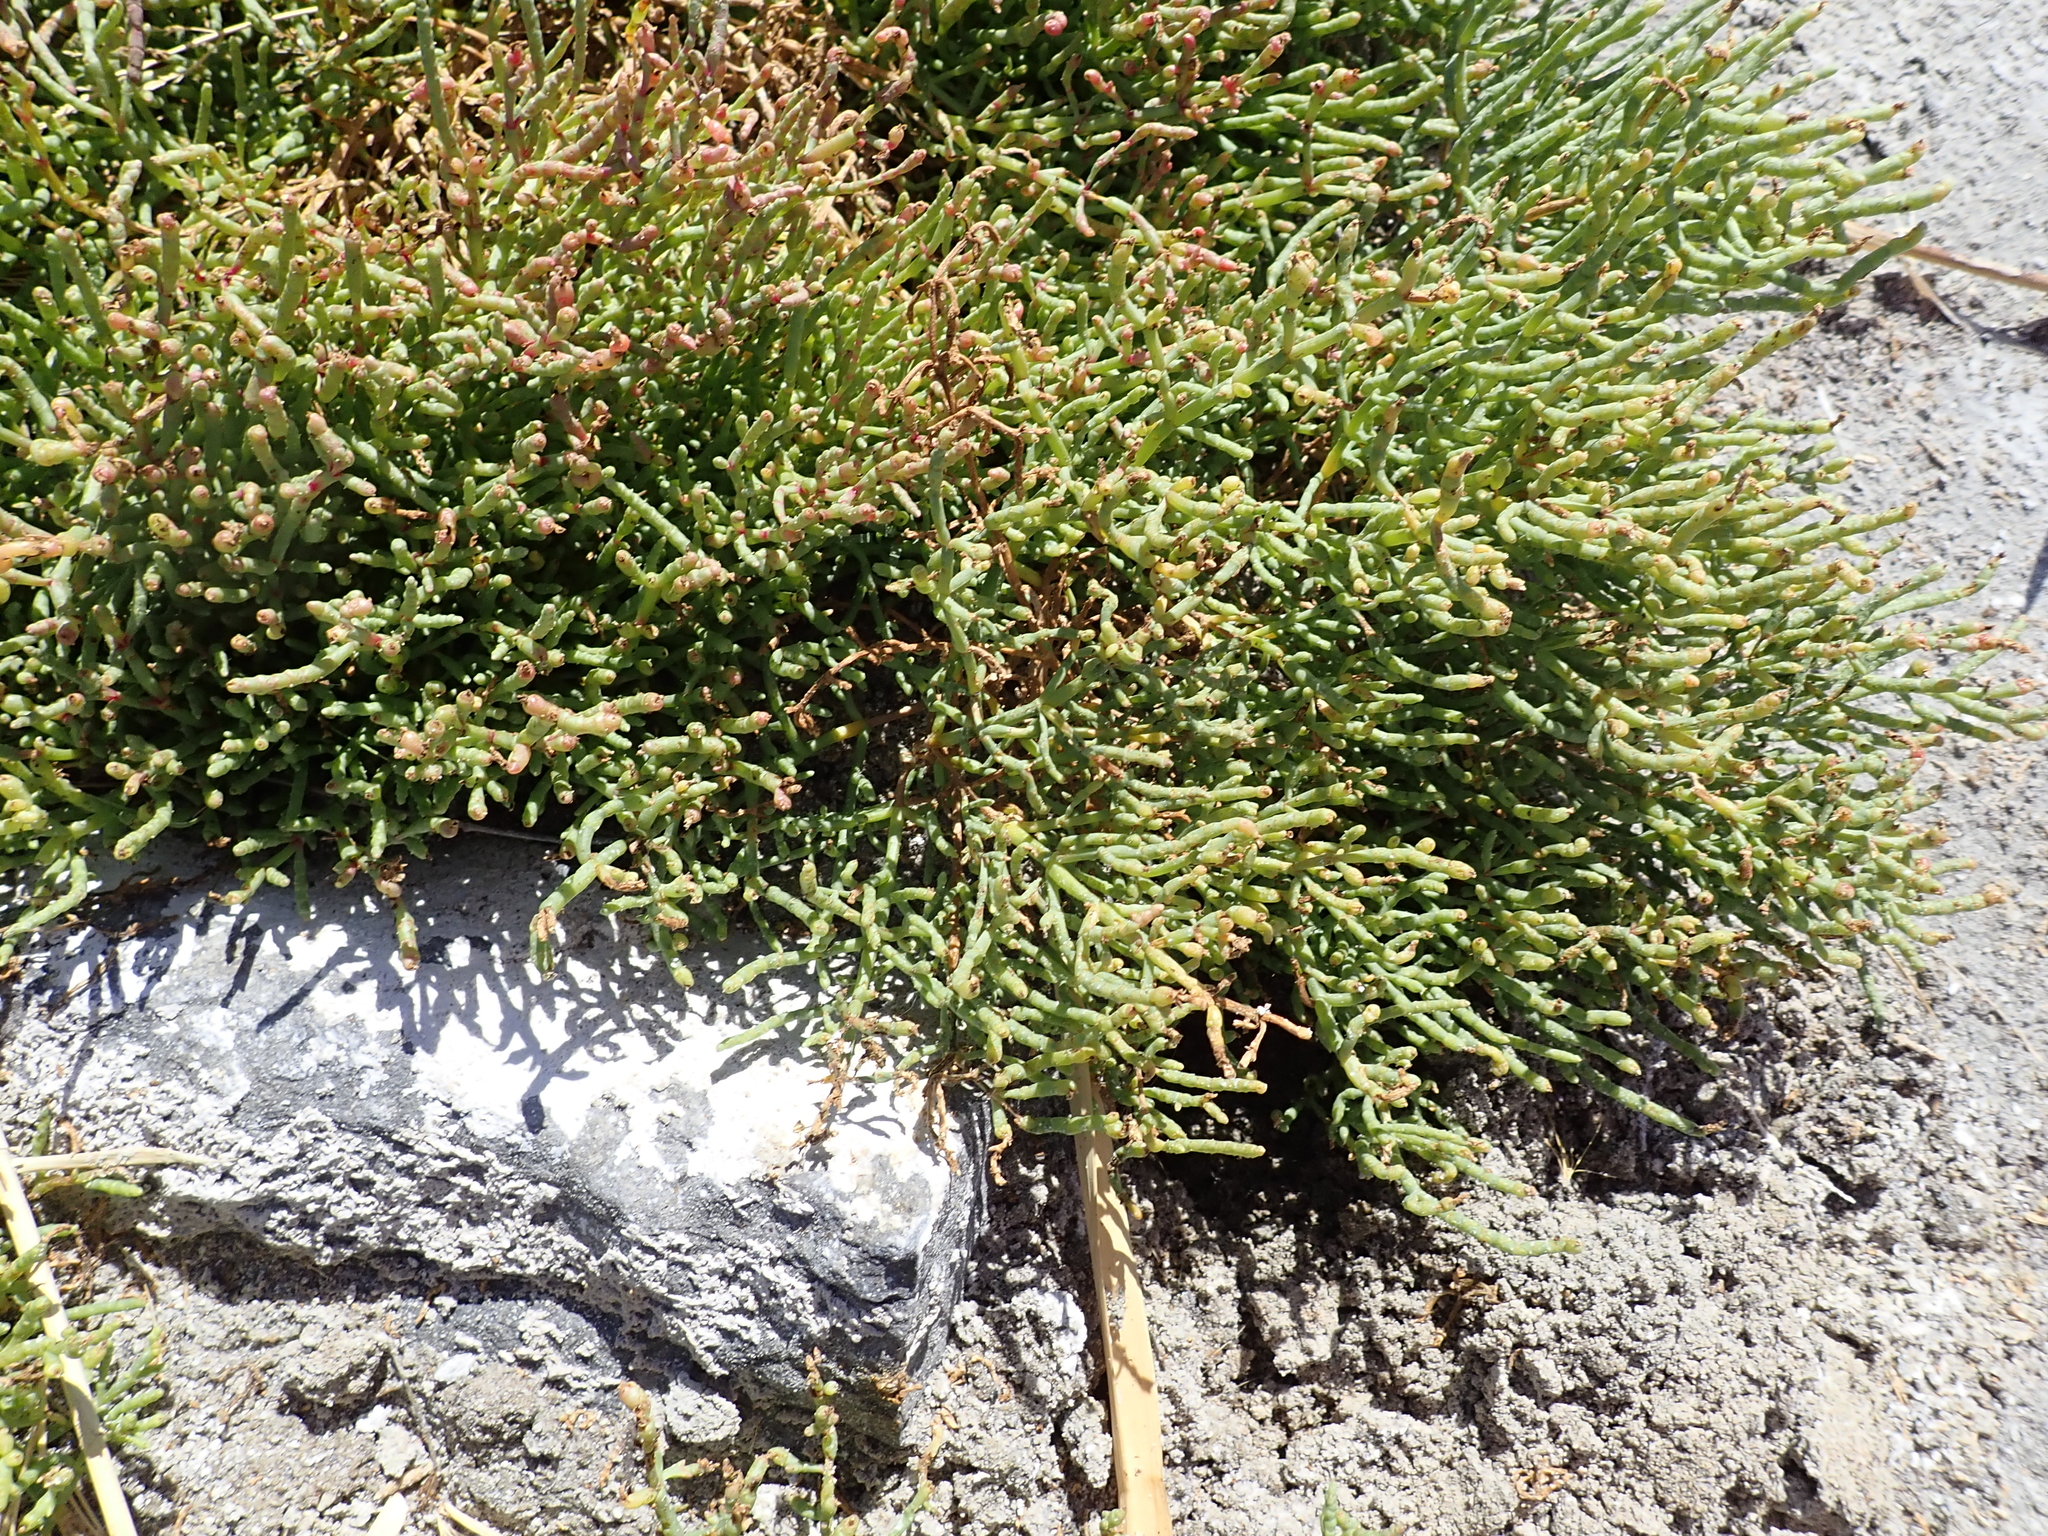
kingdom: Plantae
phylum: Tracheophyta
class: Magnoliopsida
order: Caryophyllales
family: Amaranthaceae
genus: Allenrolfea
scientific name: Allenrolfea occidentalis
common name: Iodine-bush
